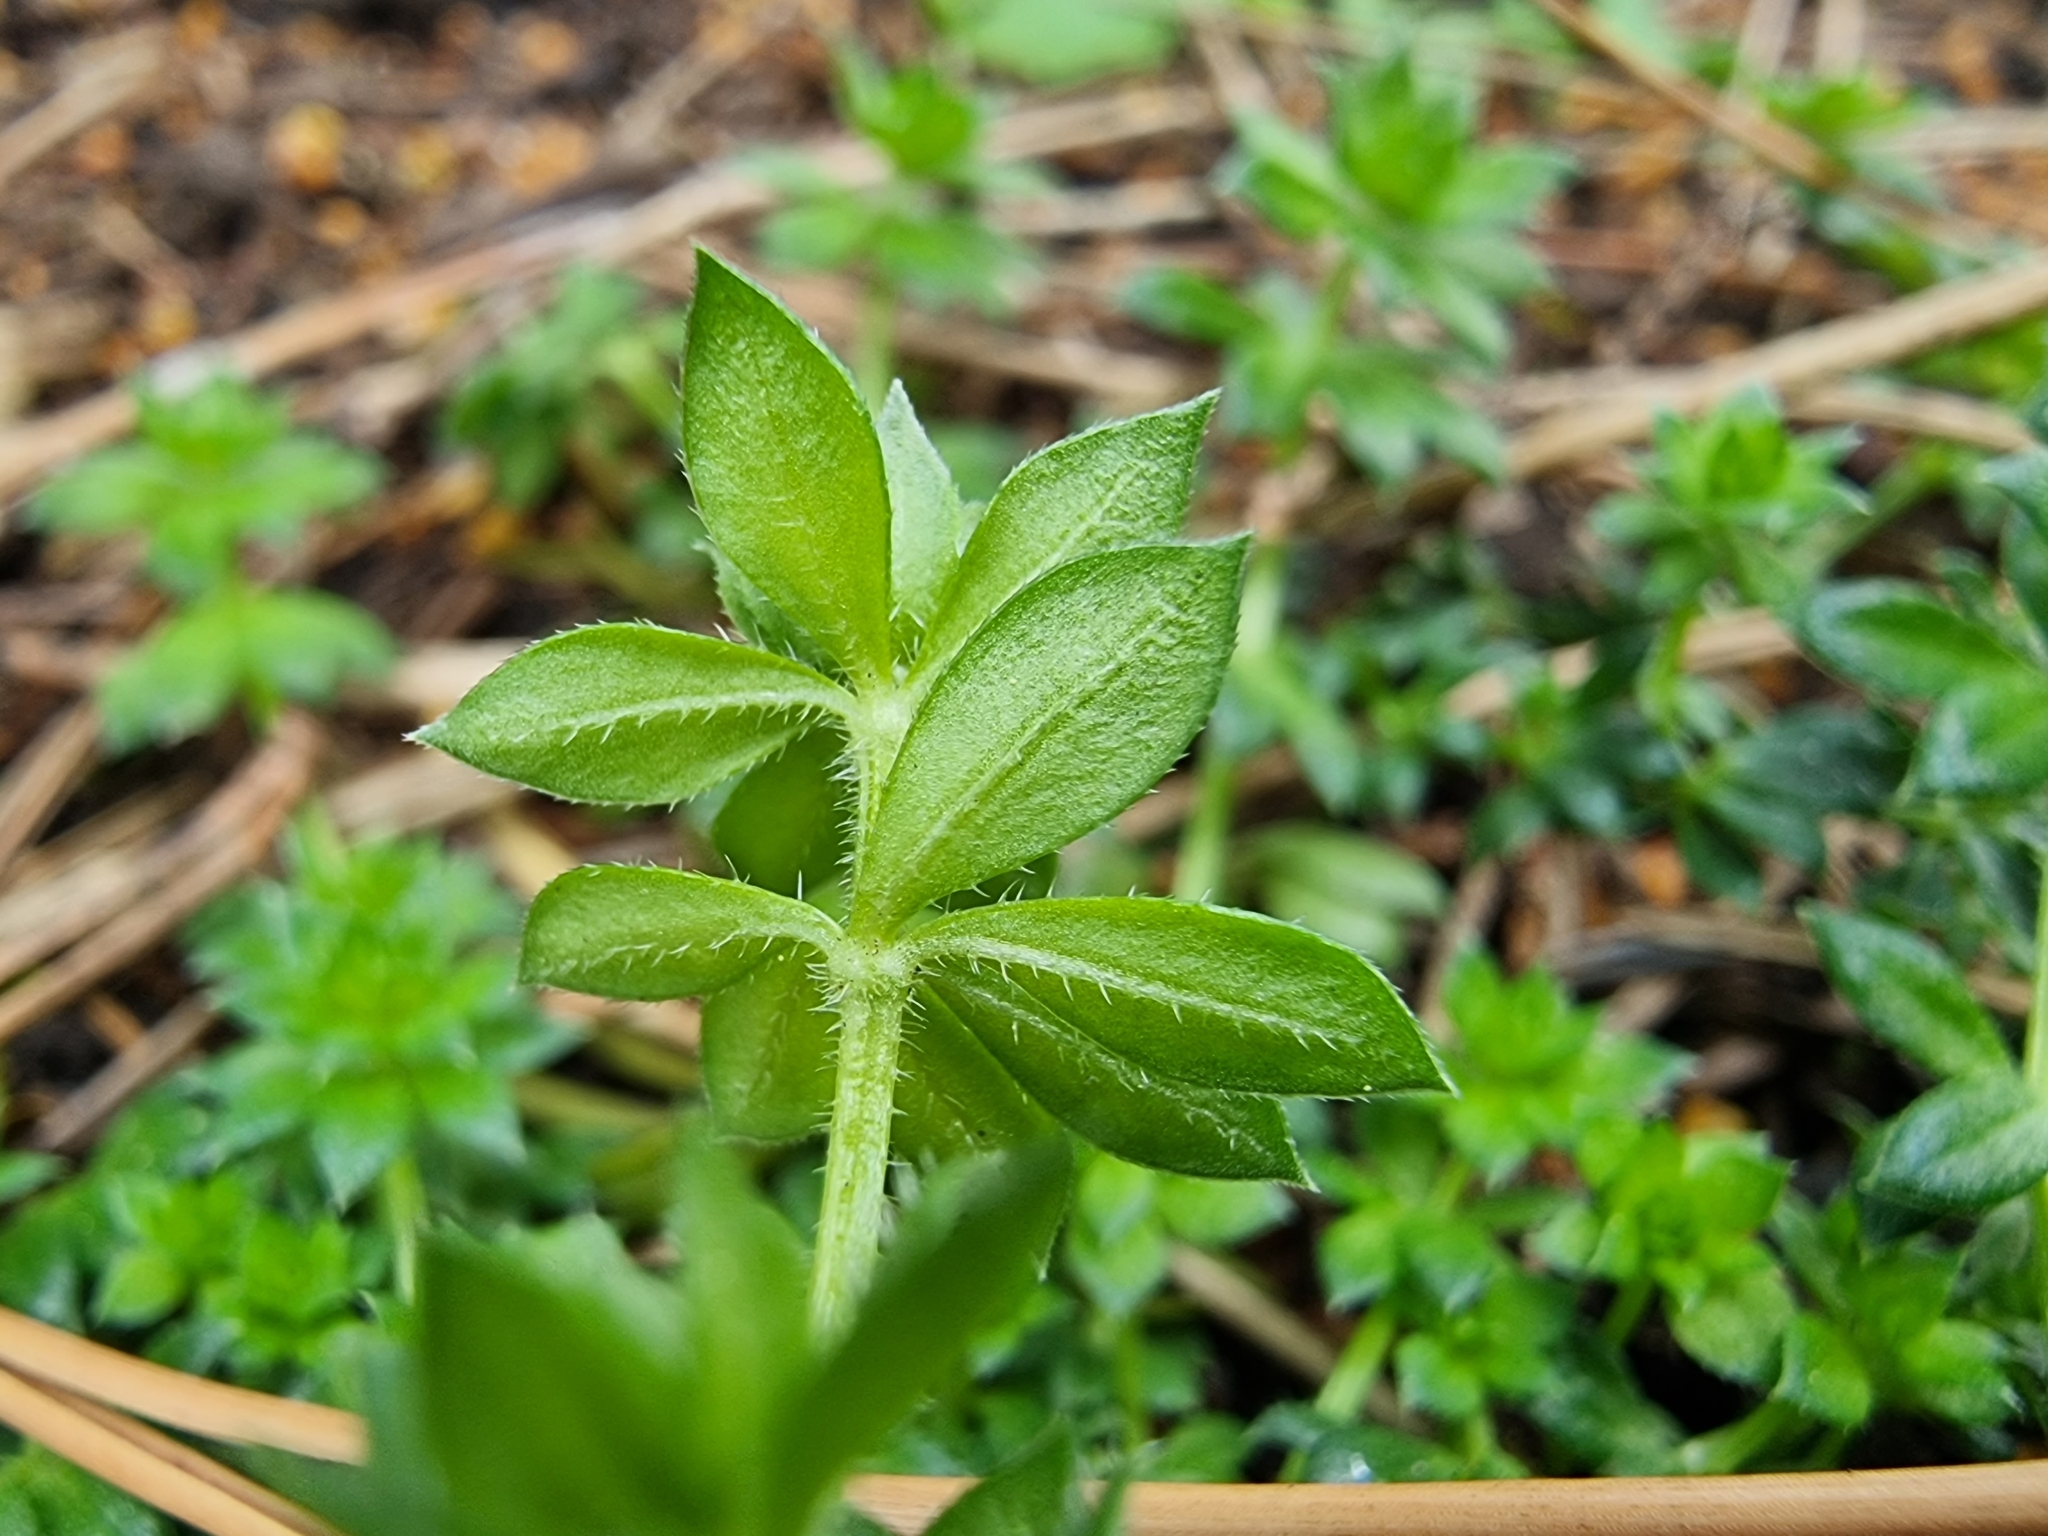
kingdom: Plantae
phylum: Tracheophyta
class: Magnoliopsida
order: Gentianales
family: Rubiaceae
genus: Sherardia
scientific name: Sherardia arvensis
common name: Field madder
